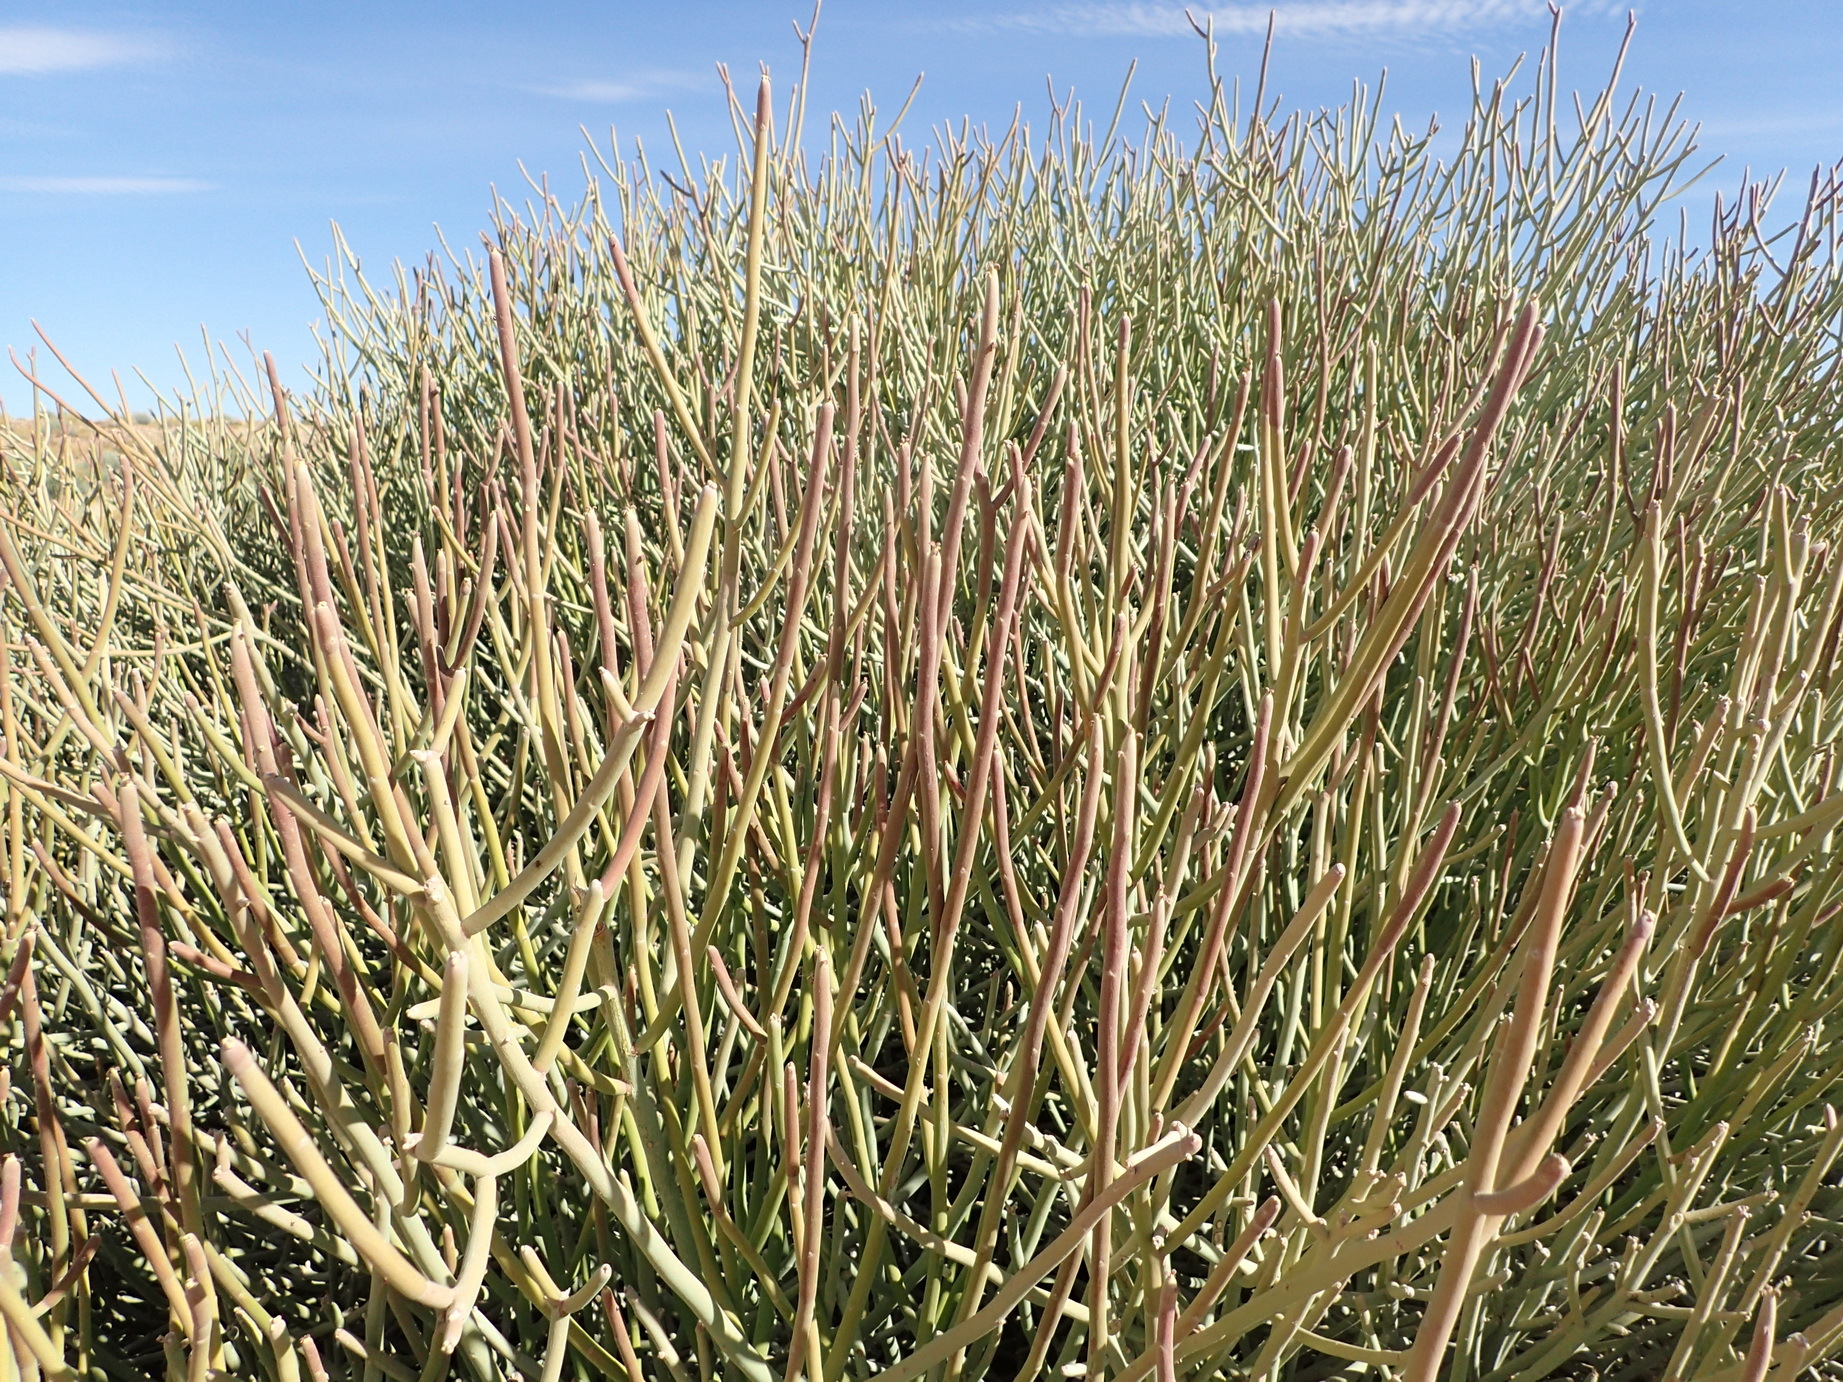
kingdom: Plantae
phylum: Tracheophyta
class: Magnoliopsida
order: Malpighiales
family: Euphorbiaceae
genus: Euphorbia
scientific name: Euphorbia gregaria
